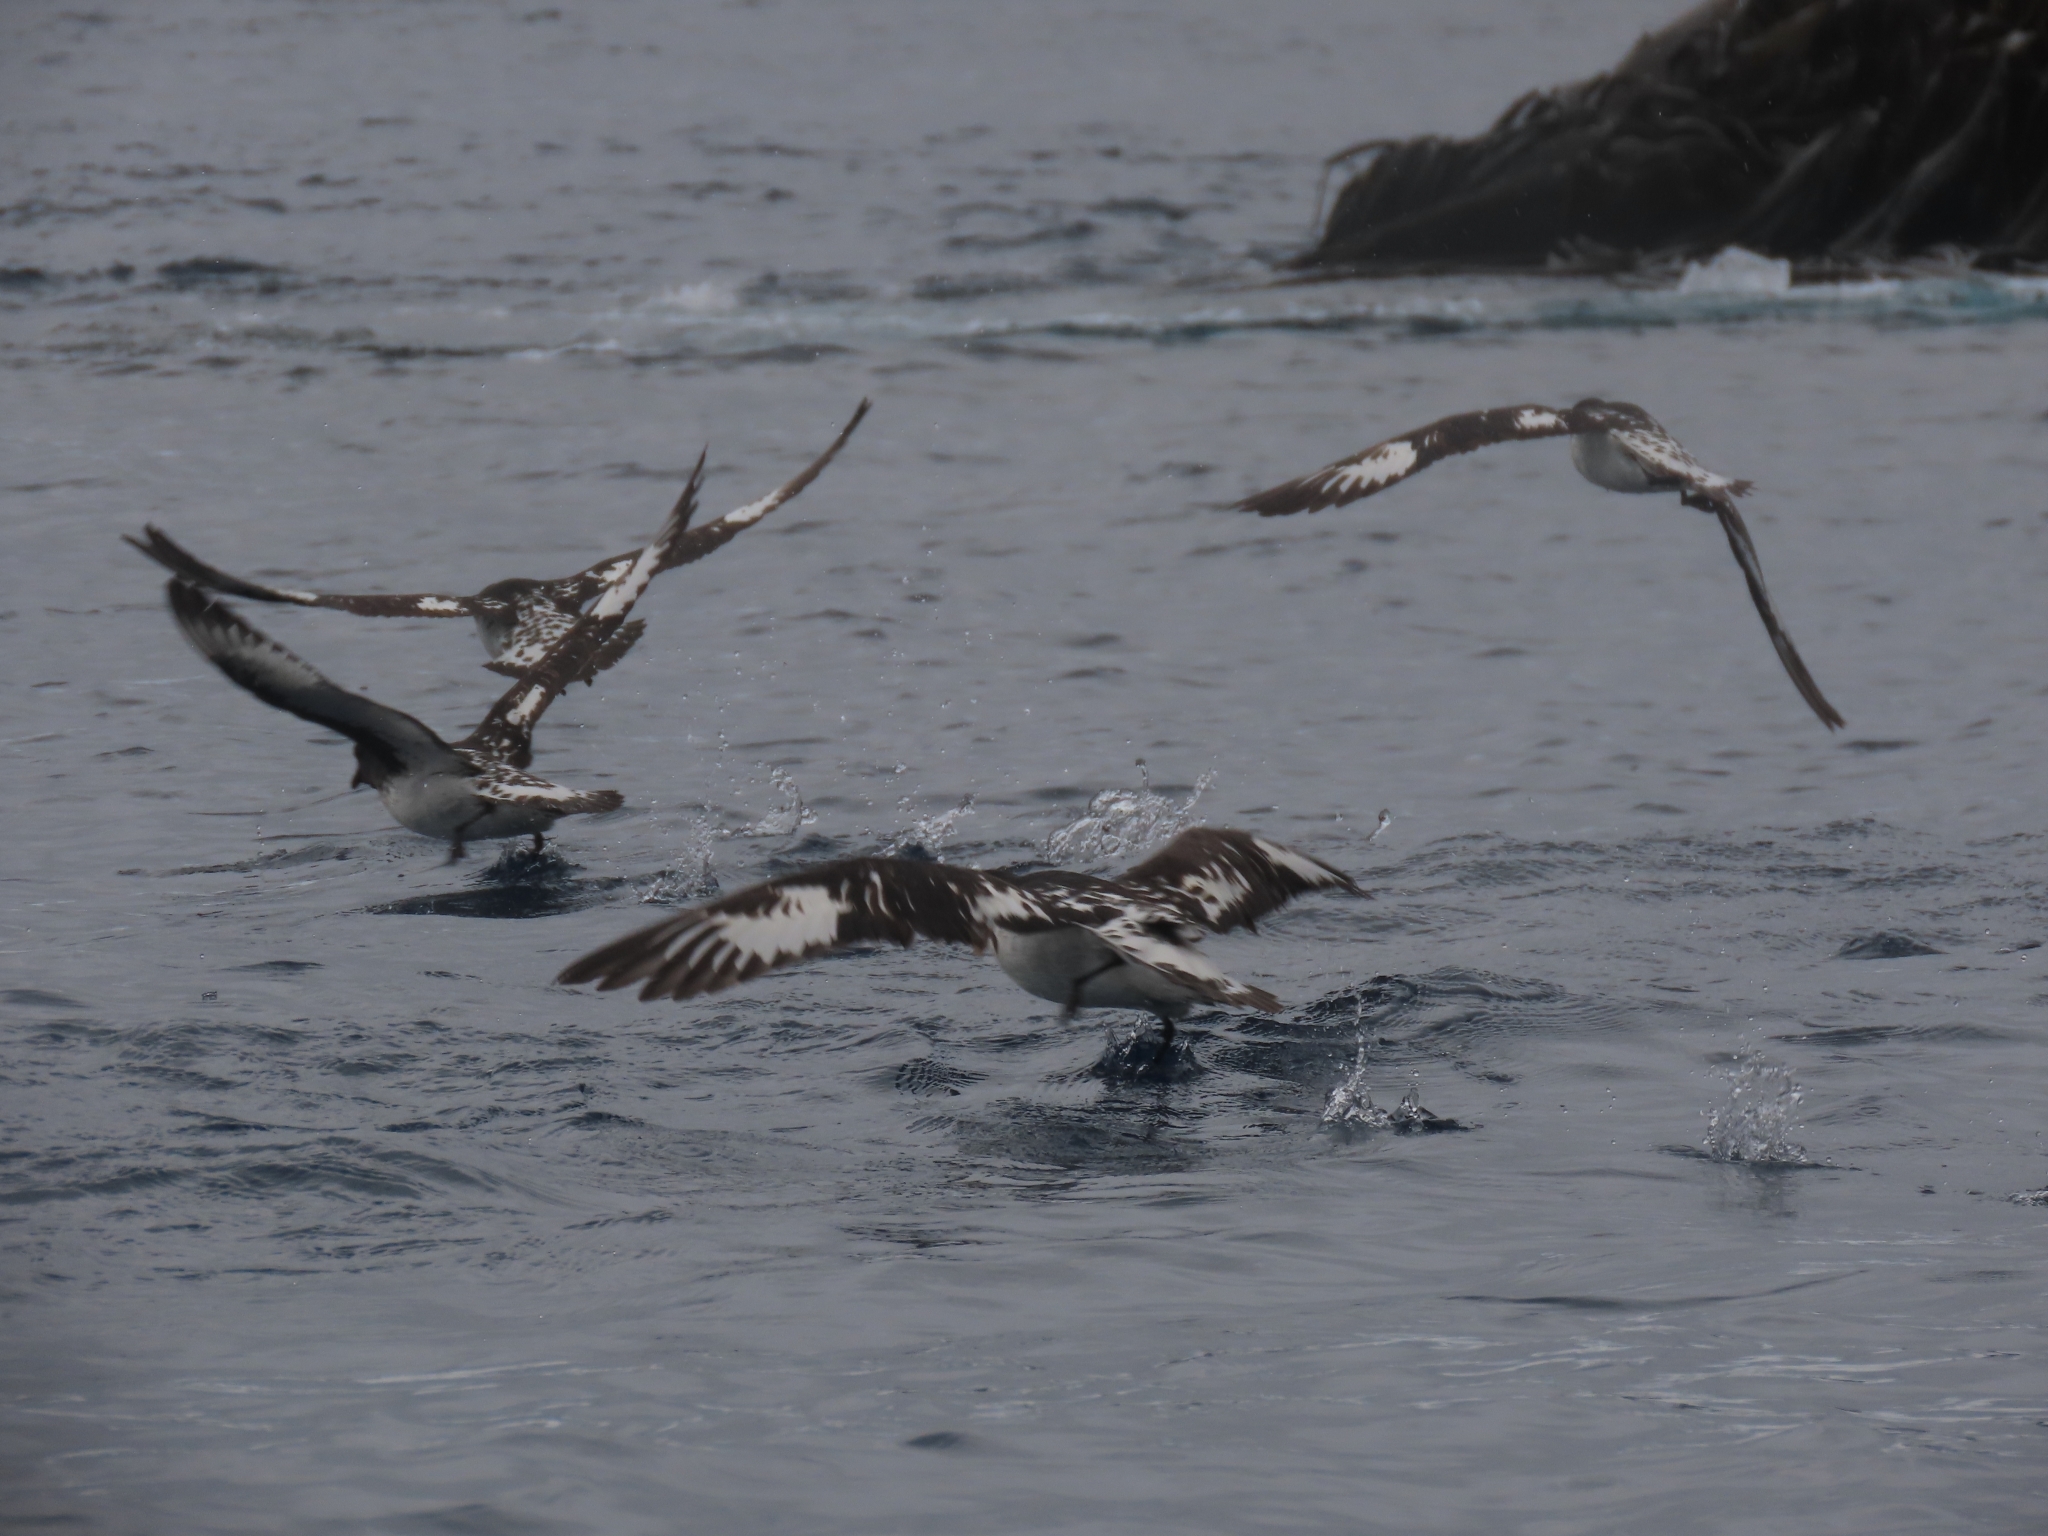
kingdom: Animalia
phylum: Chordata
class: Aves
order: Procellariiformes
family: Procellariidae
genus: Daption
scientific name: Daption capense
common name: Cape petrel
